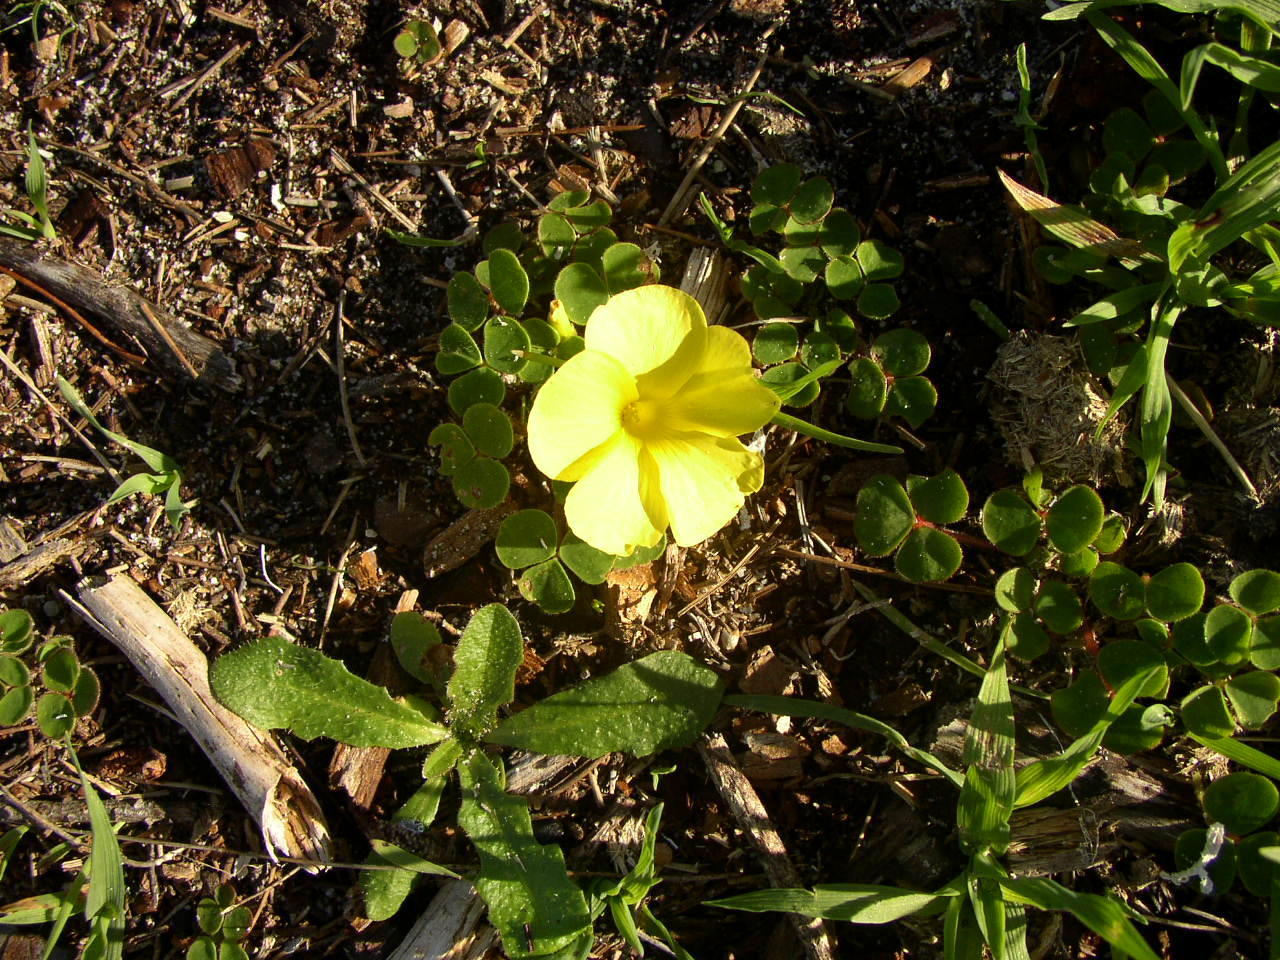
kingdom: Plantae
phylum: Tracheophyta
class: Magnoliopsida
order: Oxalidales
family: Oxalidaceae
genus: Oxalis
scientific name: Oxalis luteola
